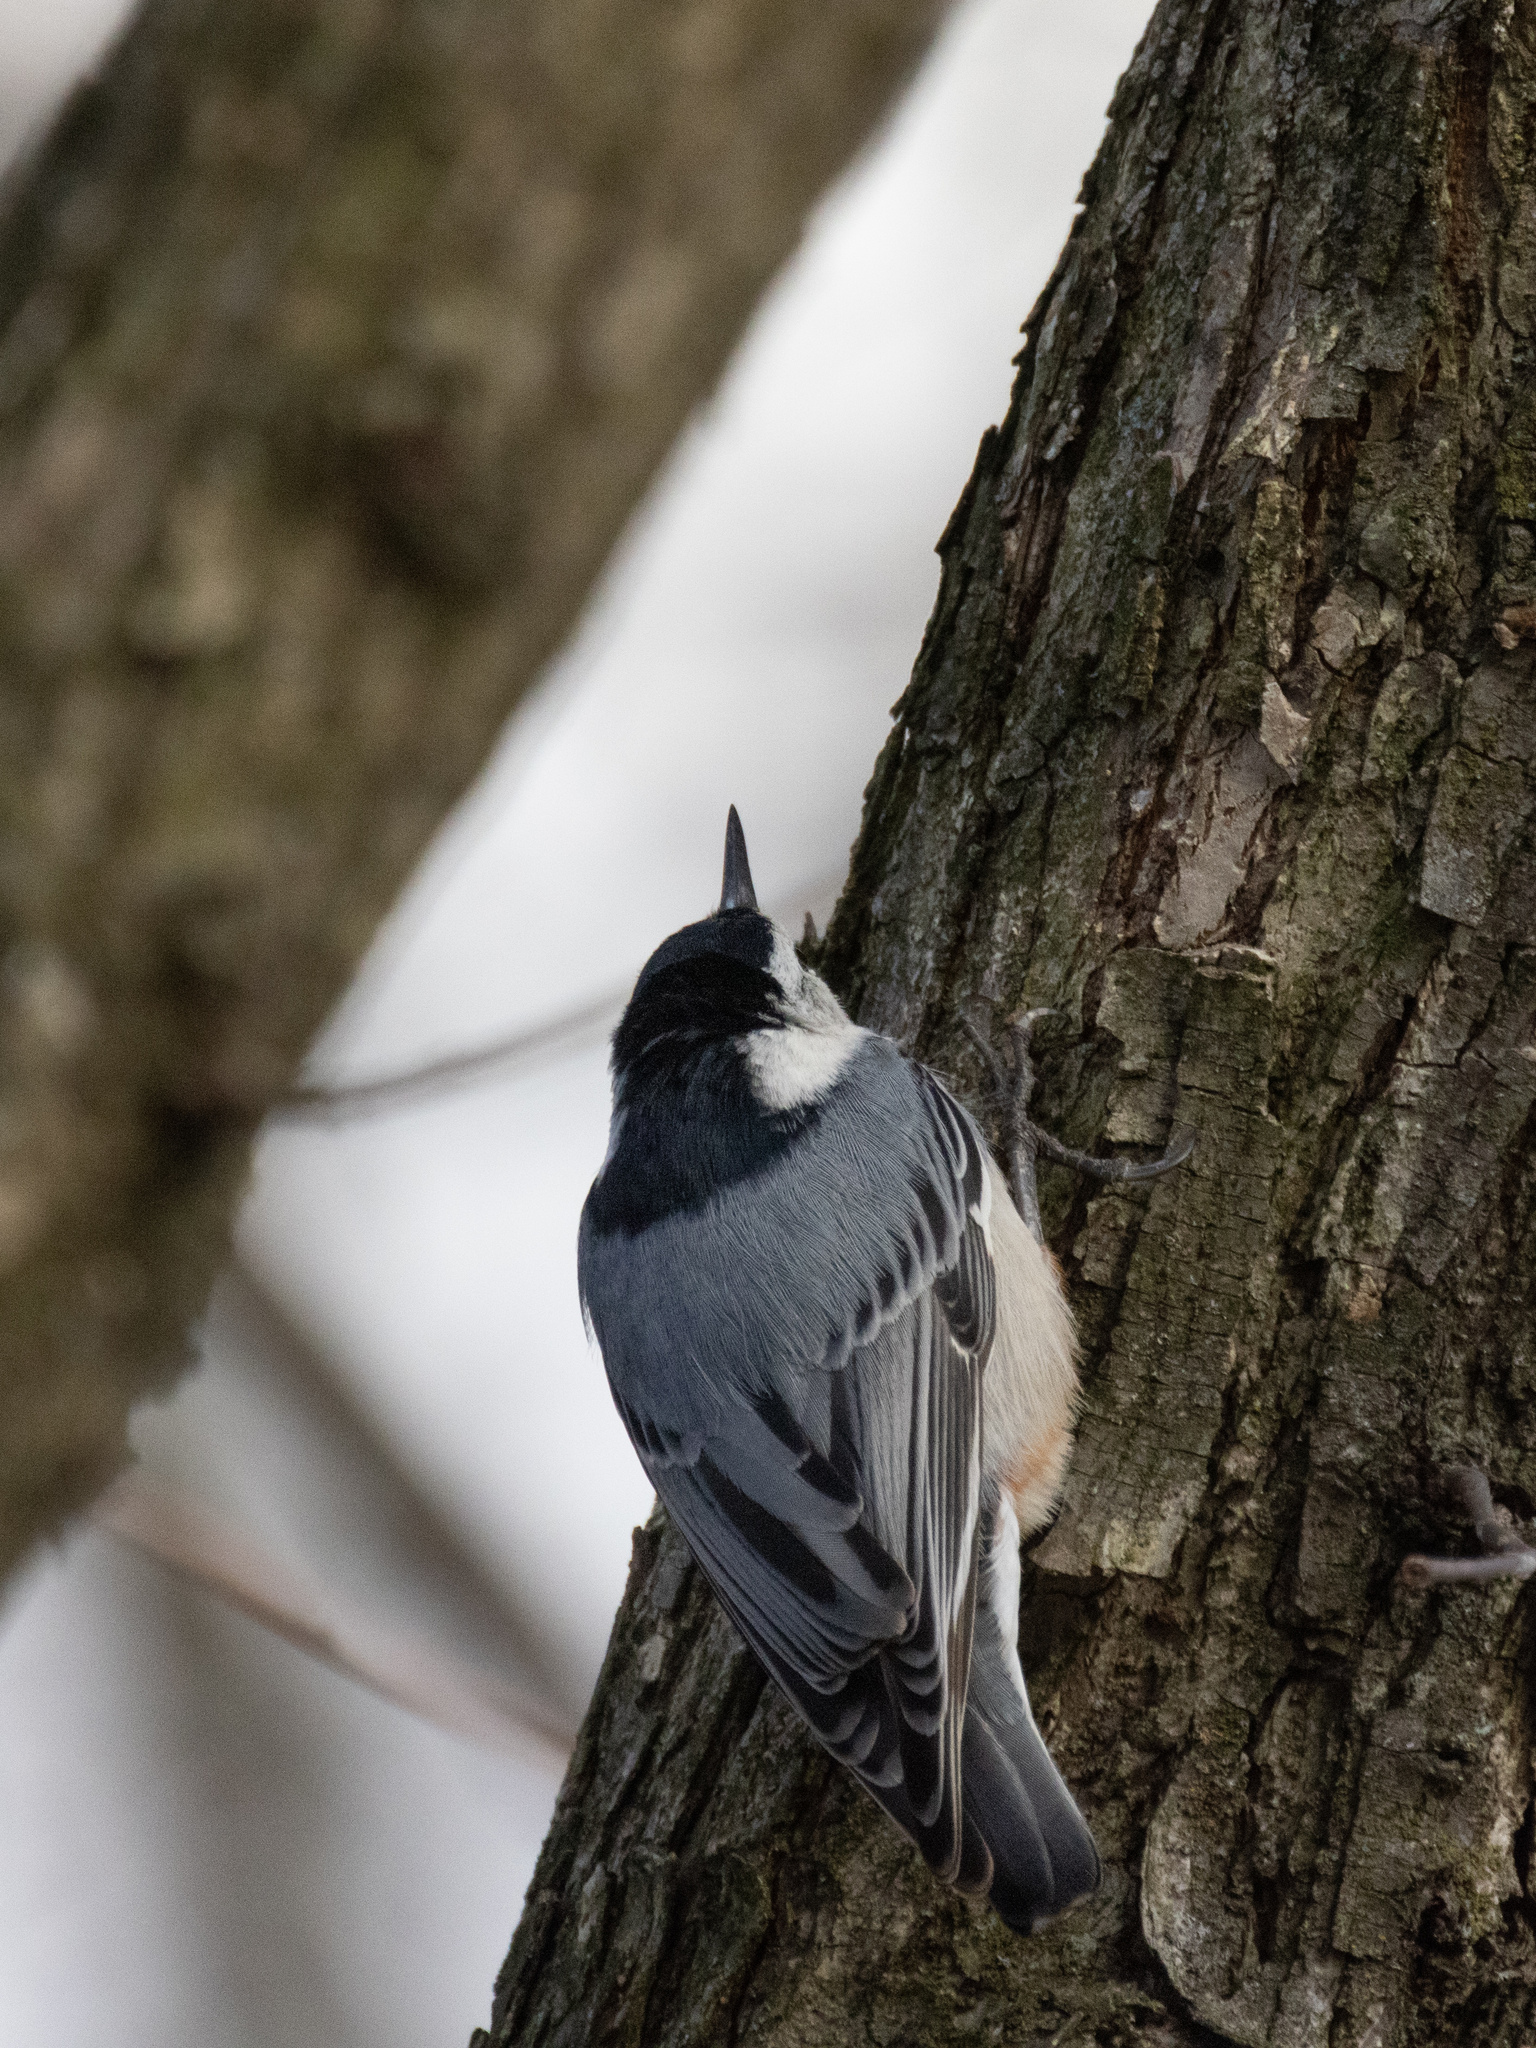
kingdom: Animalia
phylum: Chordata
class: Aves
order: Passeriformes
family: Sittidae
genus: Sitta
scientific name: Sitta carolinensis
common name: White-breasted nuthatch
